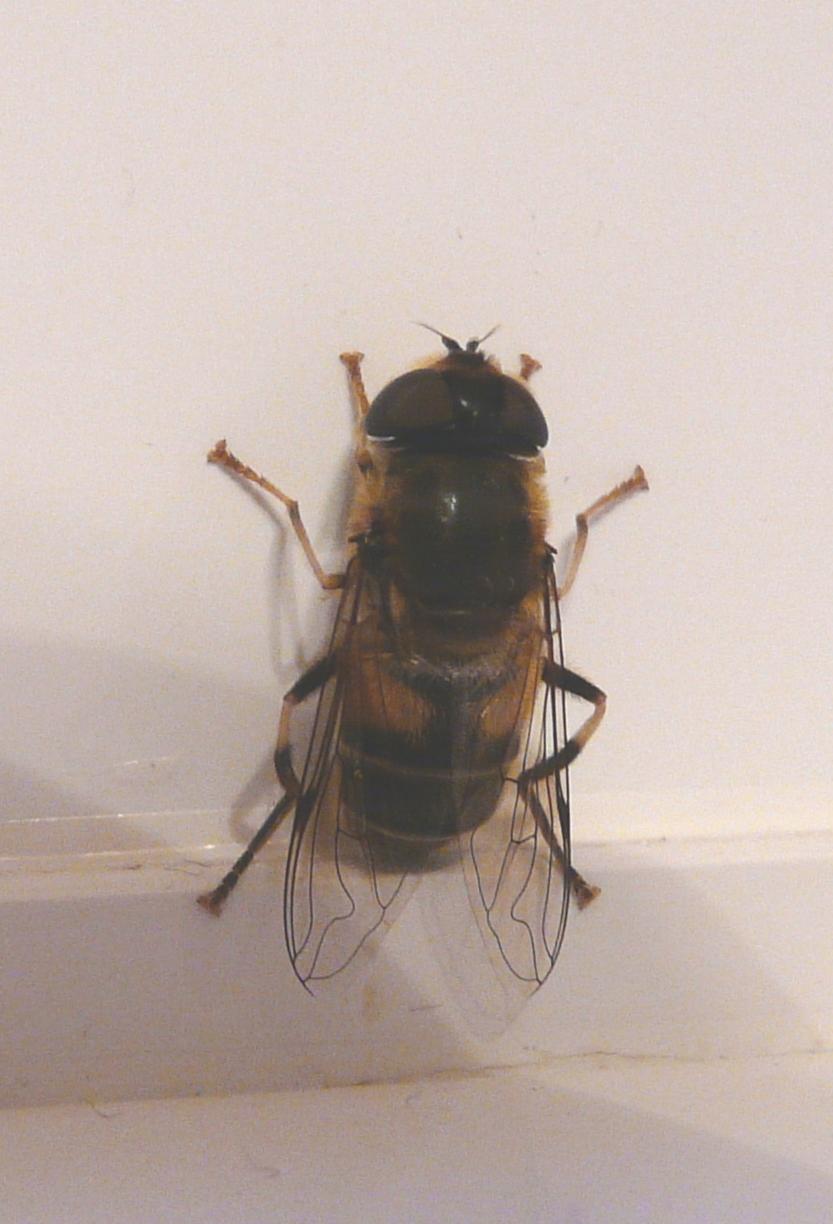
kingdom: Animalia
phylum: Arthropoda
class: Insecta
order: Diptera
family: Syrphidae
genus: Eristalis
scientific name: Eristalis pertinax
